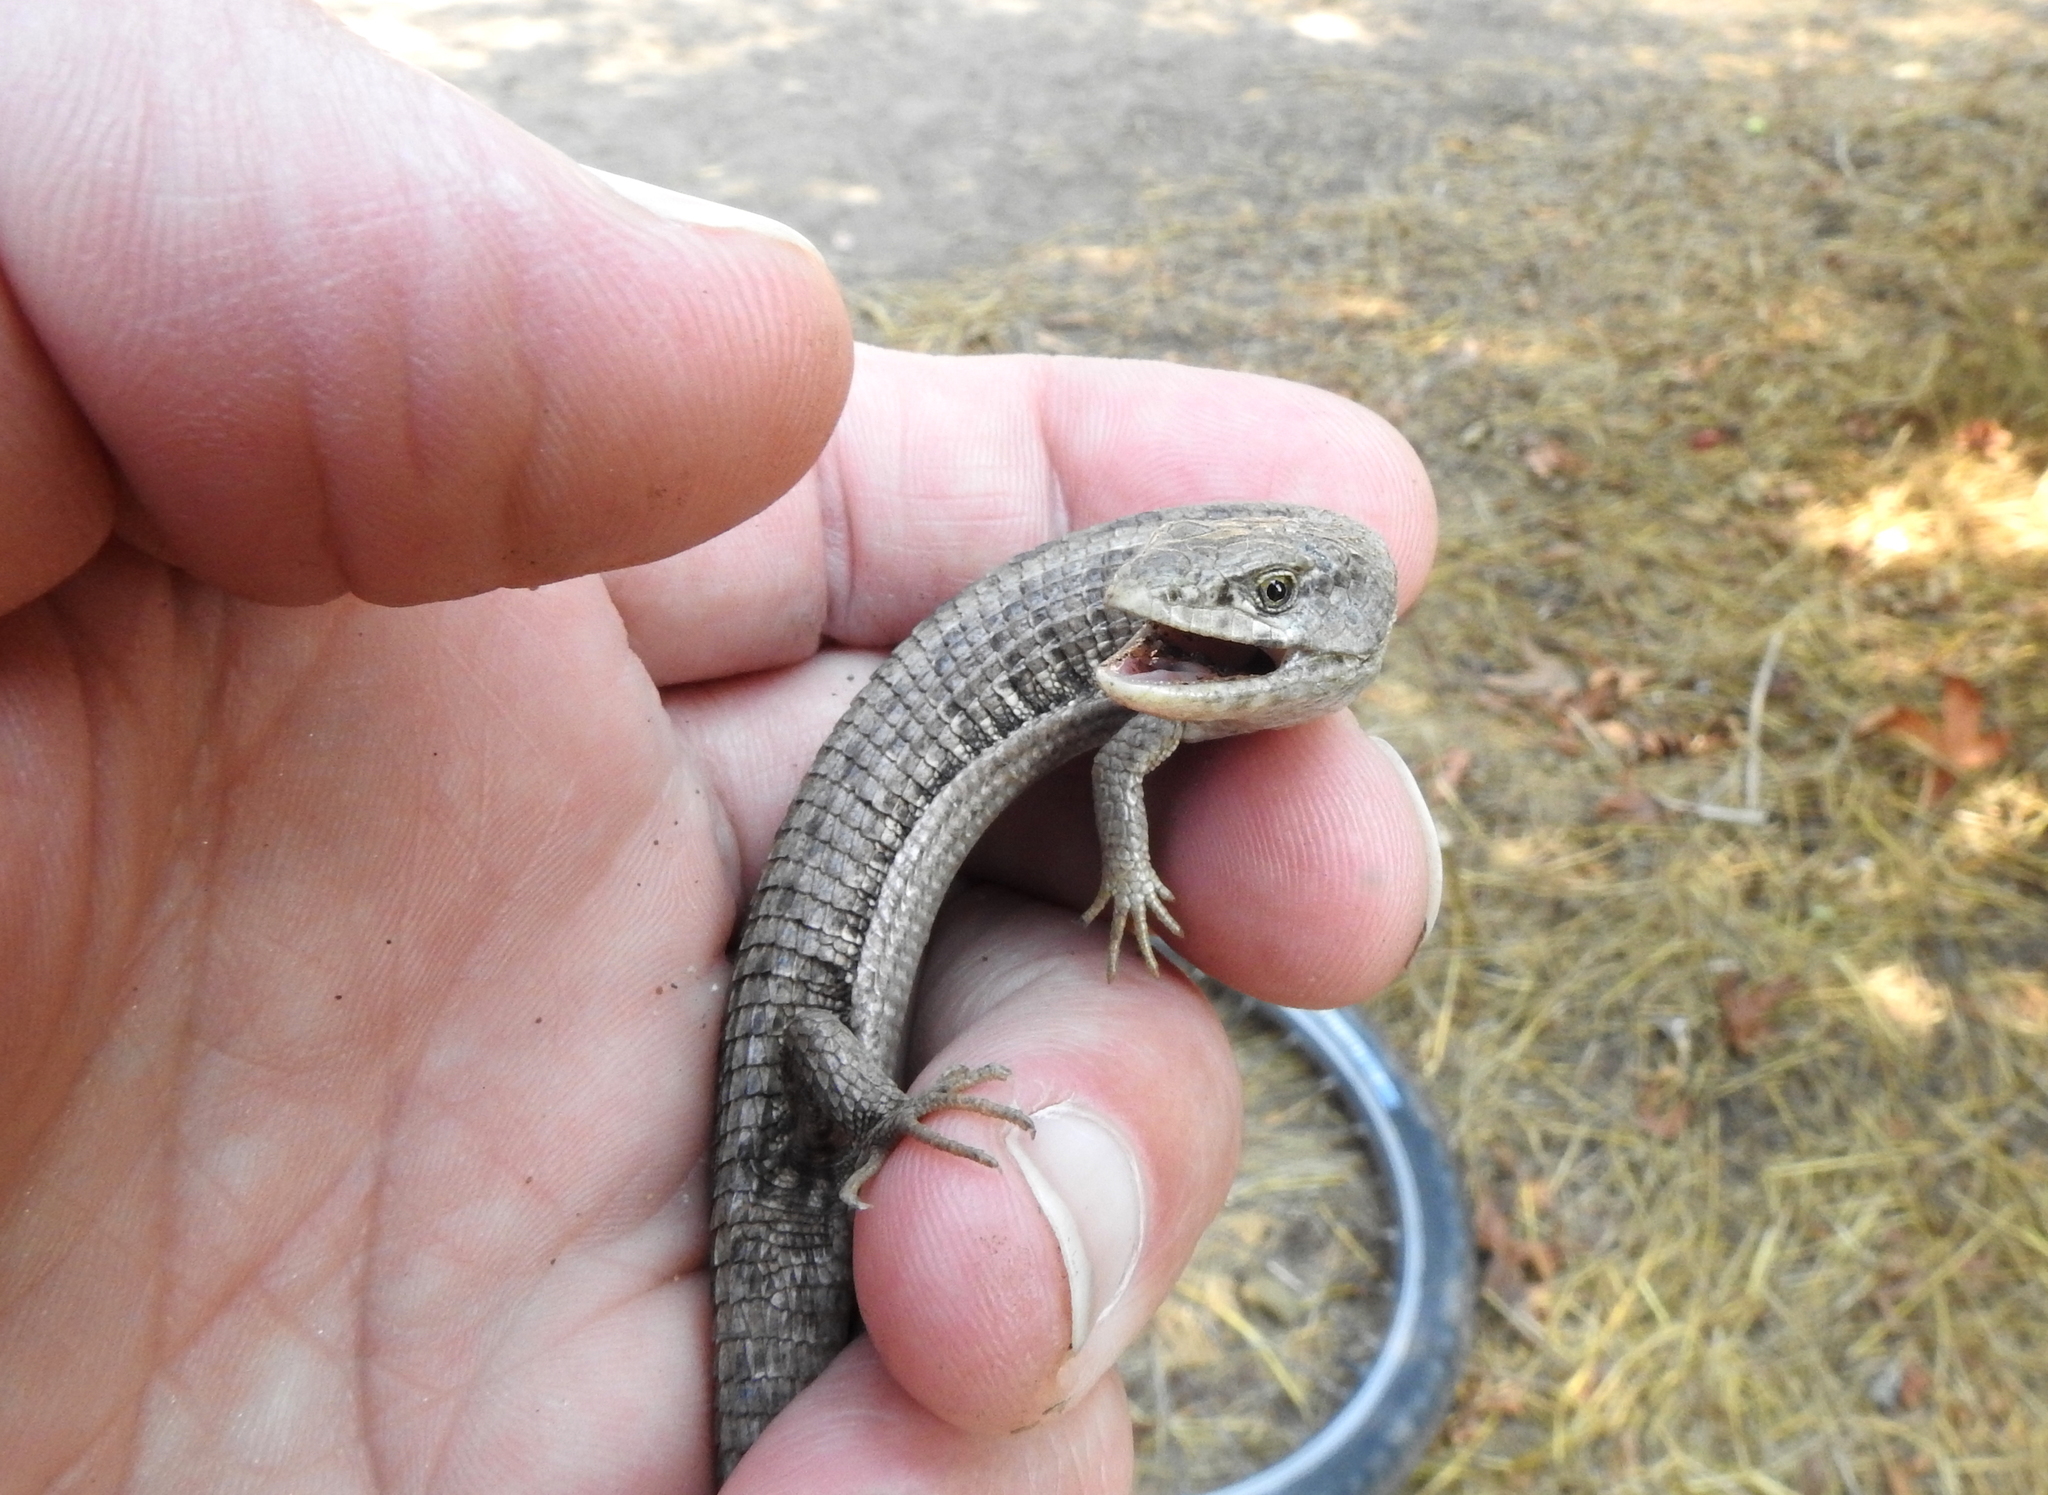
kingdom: Animalia
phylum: Chordata
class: Squamata
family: Anguidae
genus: Elgaria
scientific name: Elgaria coerulea
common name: Northern alligator lizard
